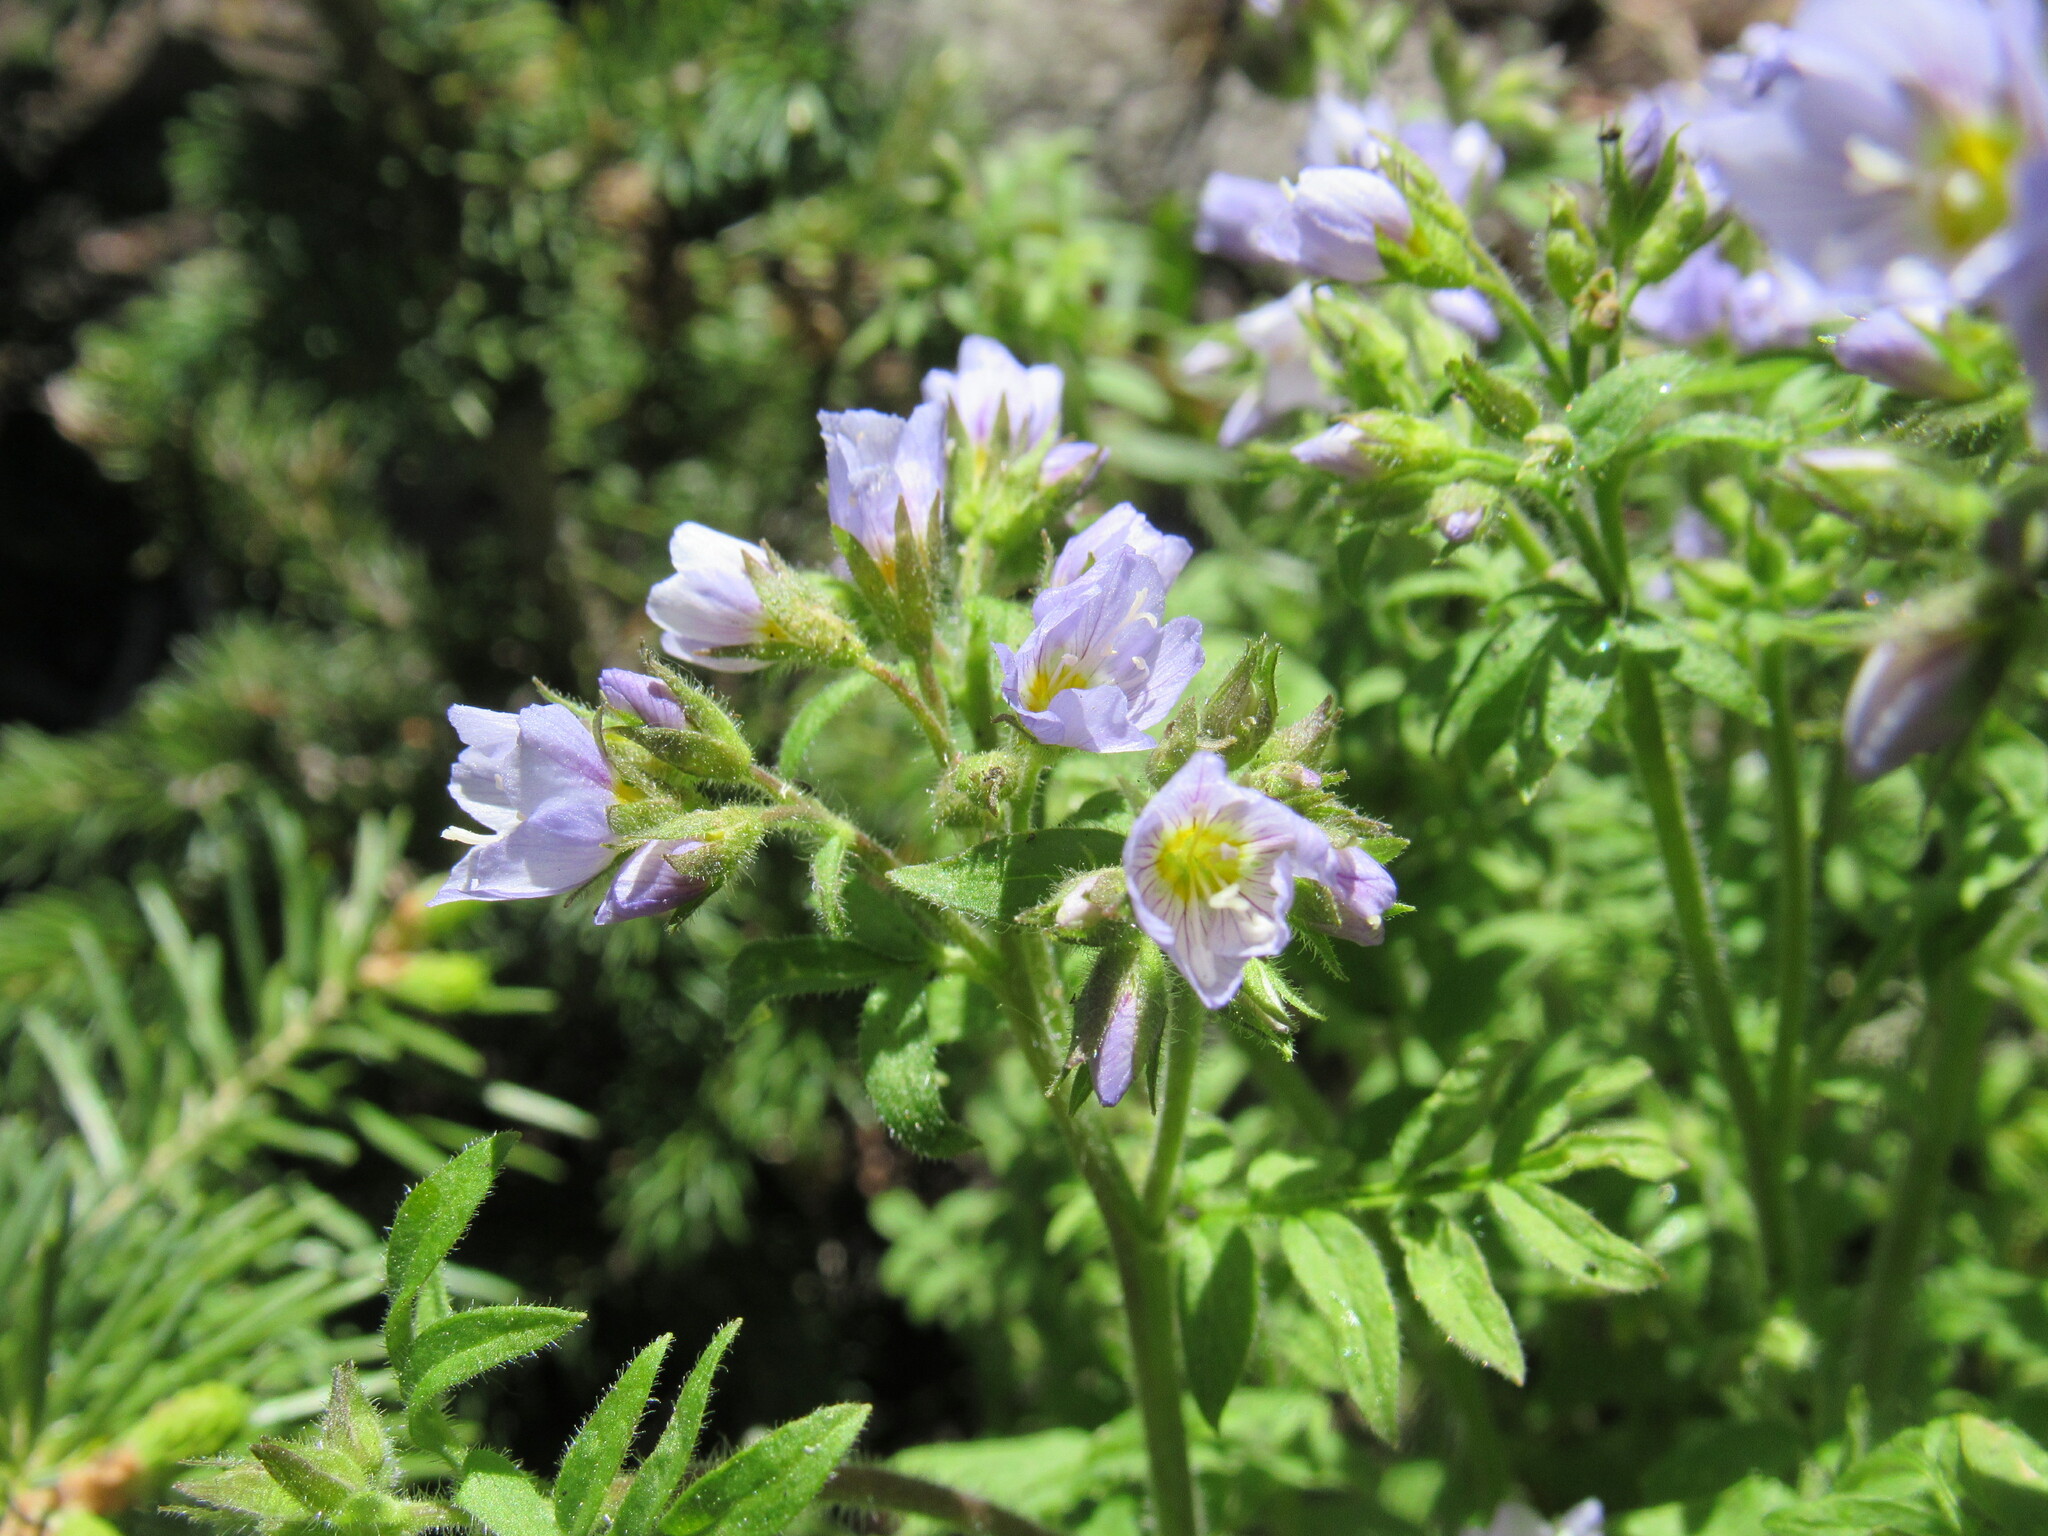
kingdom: Plantae
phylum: Tracheophyta
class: Magnoliopsida
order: Ericales
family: Polemoniaceae
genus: Polemonium
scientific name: Polemonium pulcherrimum
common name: Short jacob's-ladder
